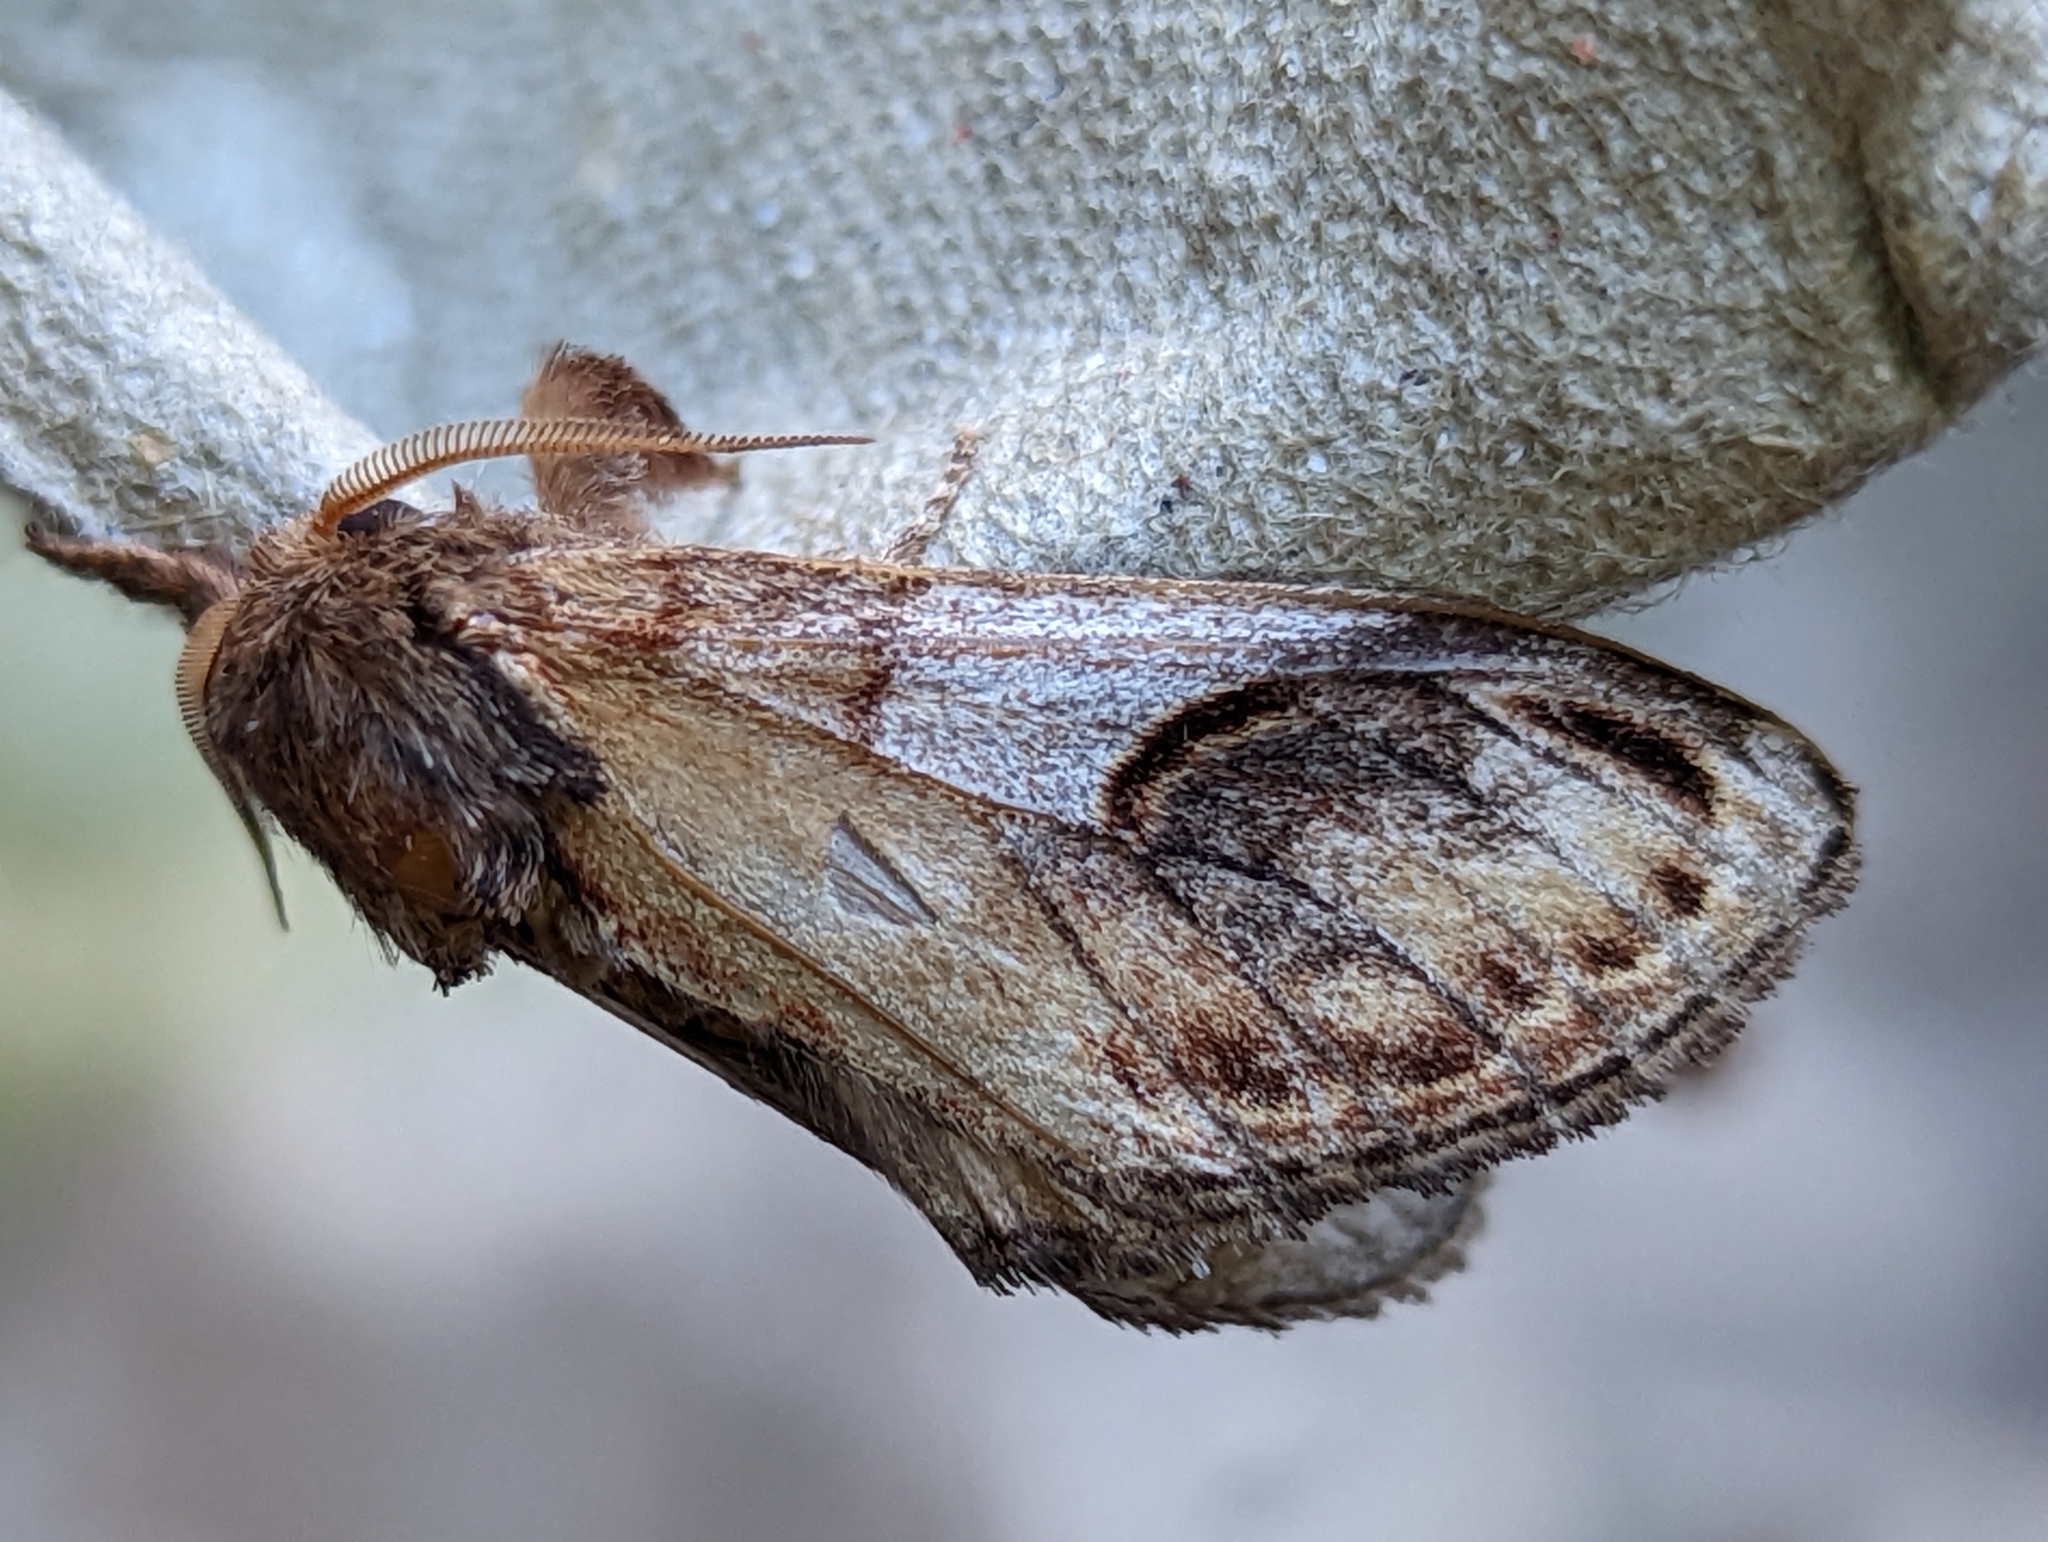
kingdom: Animalia
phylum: Arthropoda
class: Insecta
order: Lepidoptera
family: Notodontidae
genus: Notodonta
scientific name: Notodonta ziczac
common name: Pebble prominent
